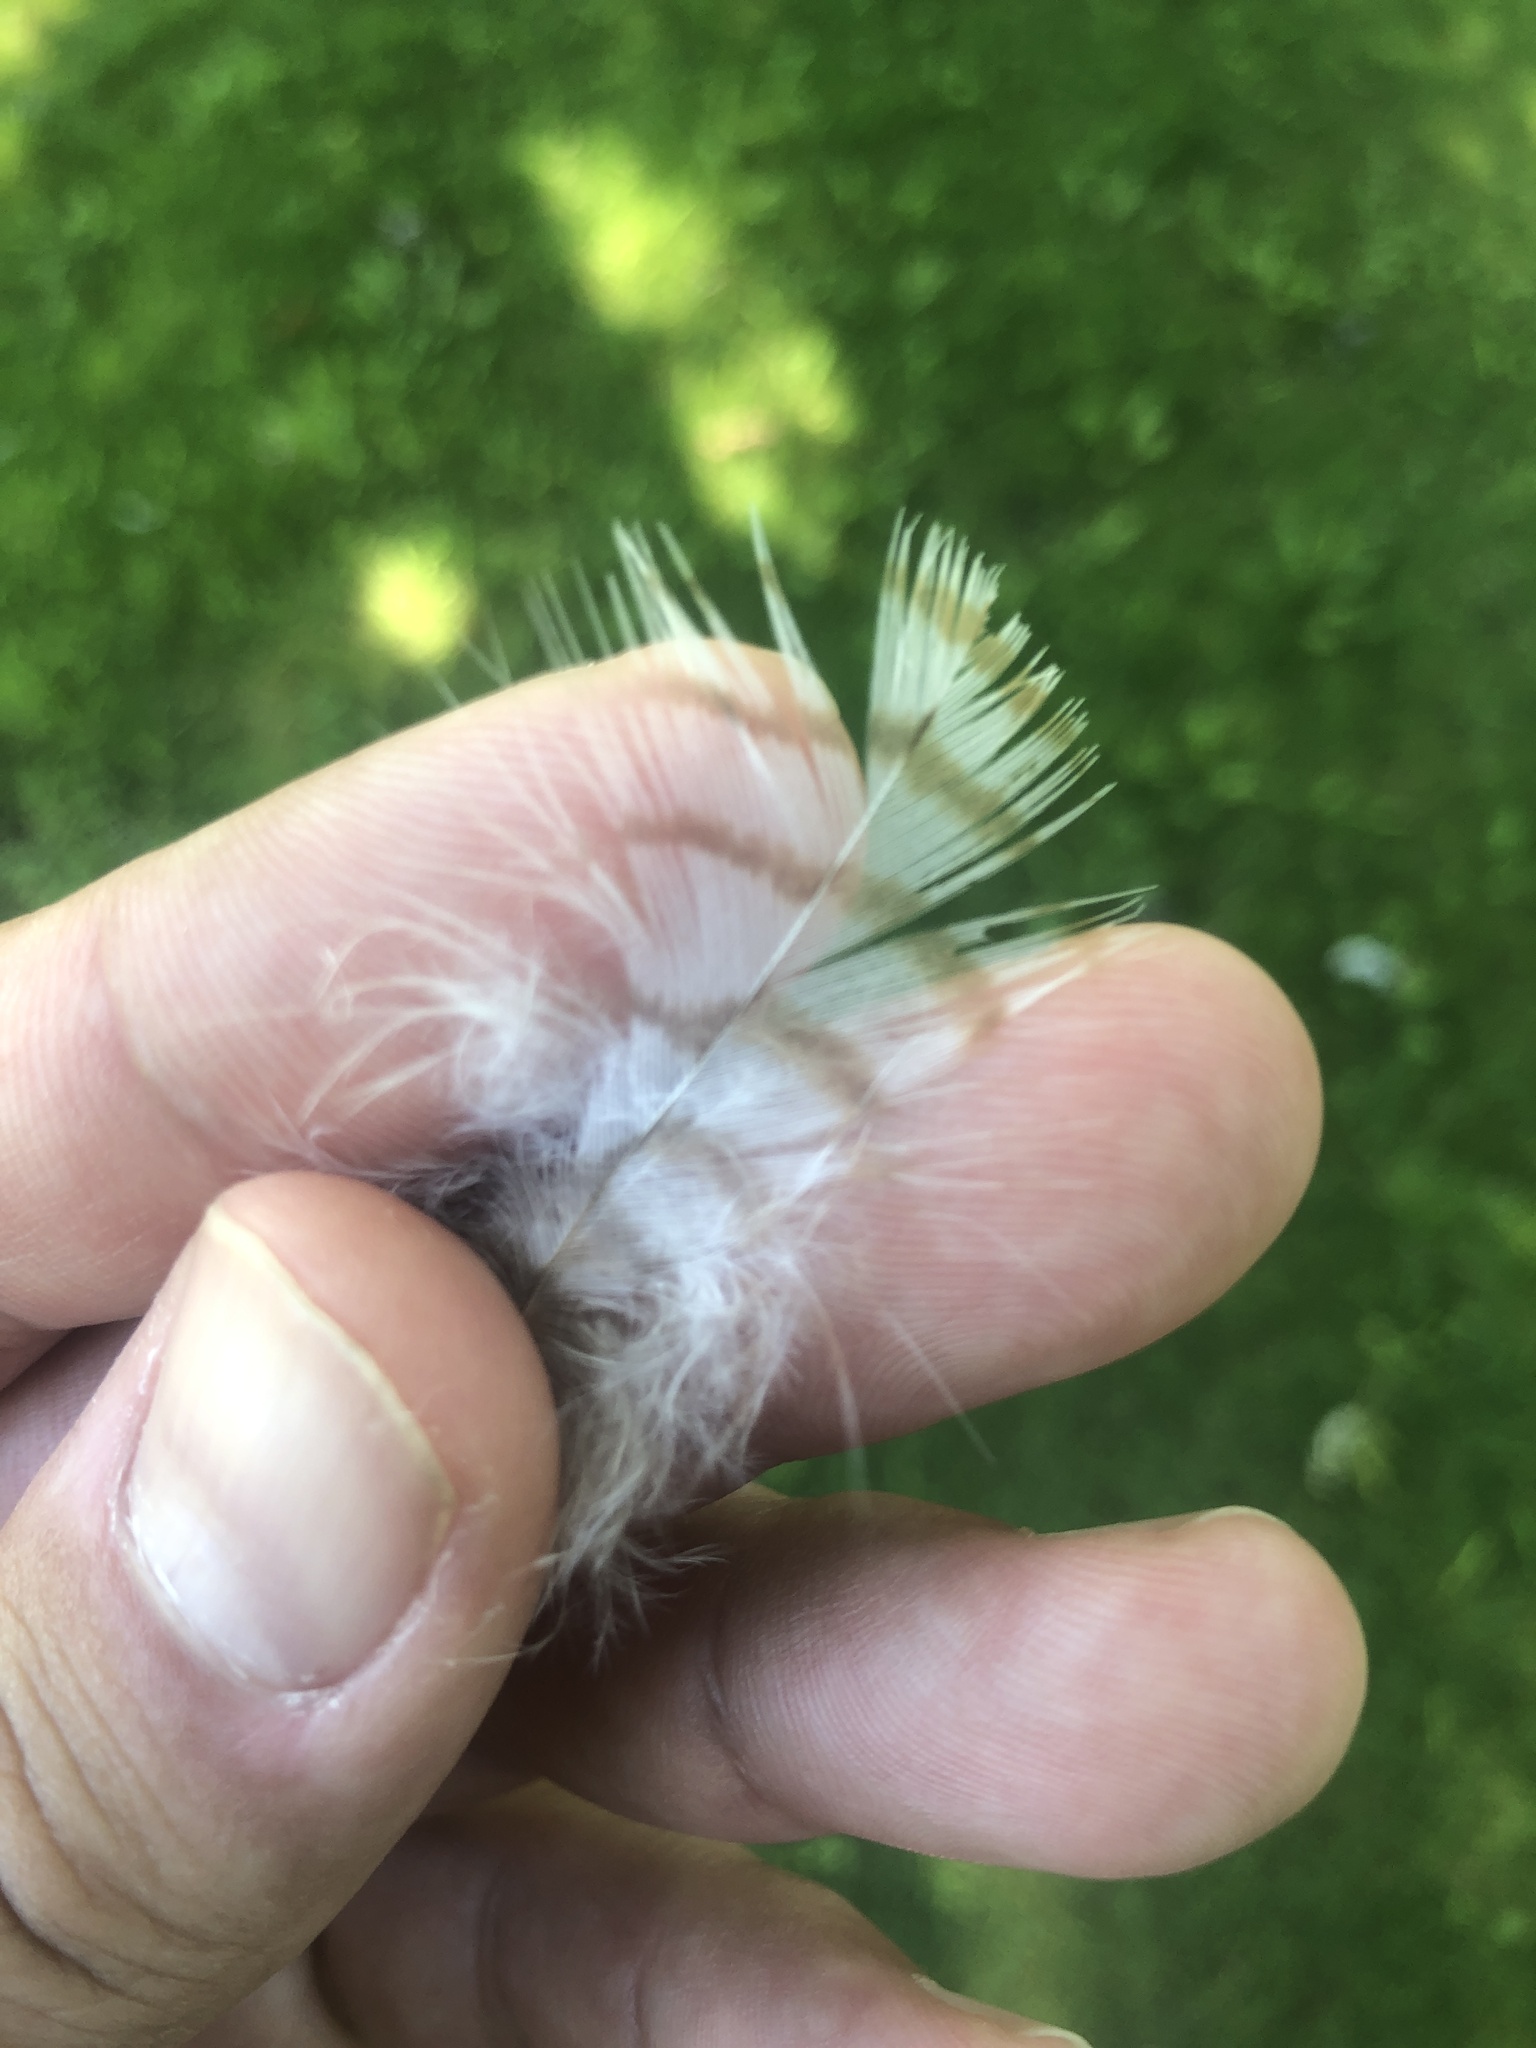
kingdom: Animalia
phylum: Chordata
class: Aves
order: Accipitriformes
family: Accipitridae
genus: Accipiter
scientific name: Accipiter nisus
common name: Eurasian sparrowhawk
